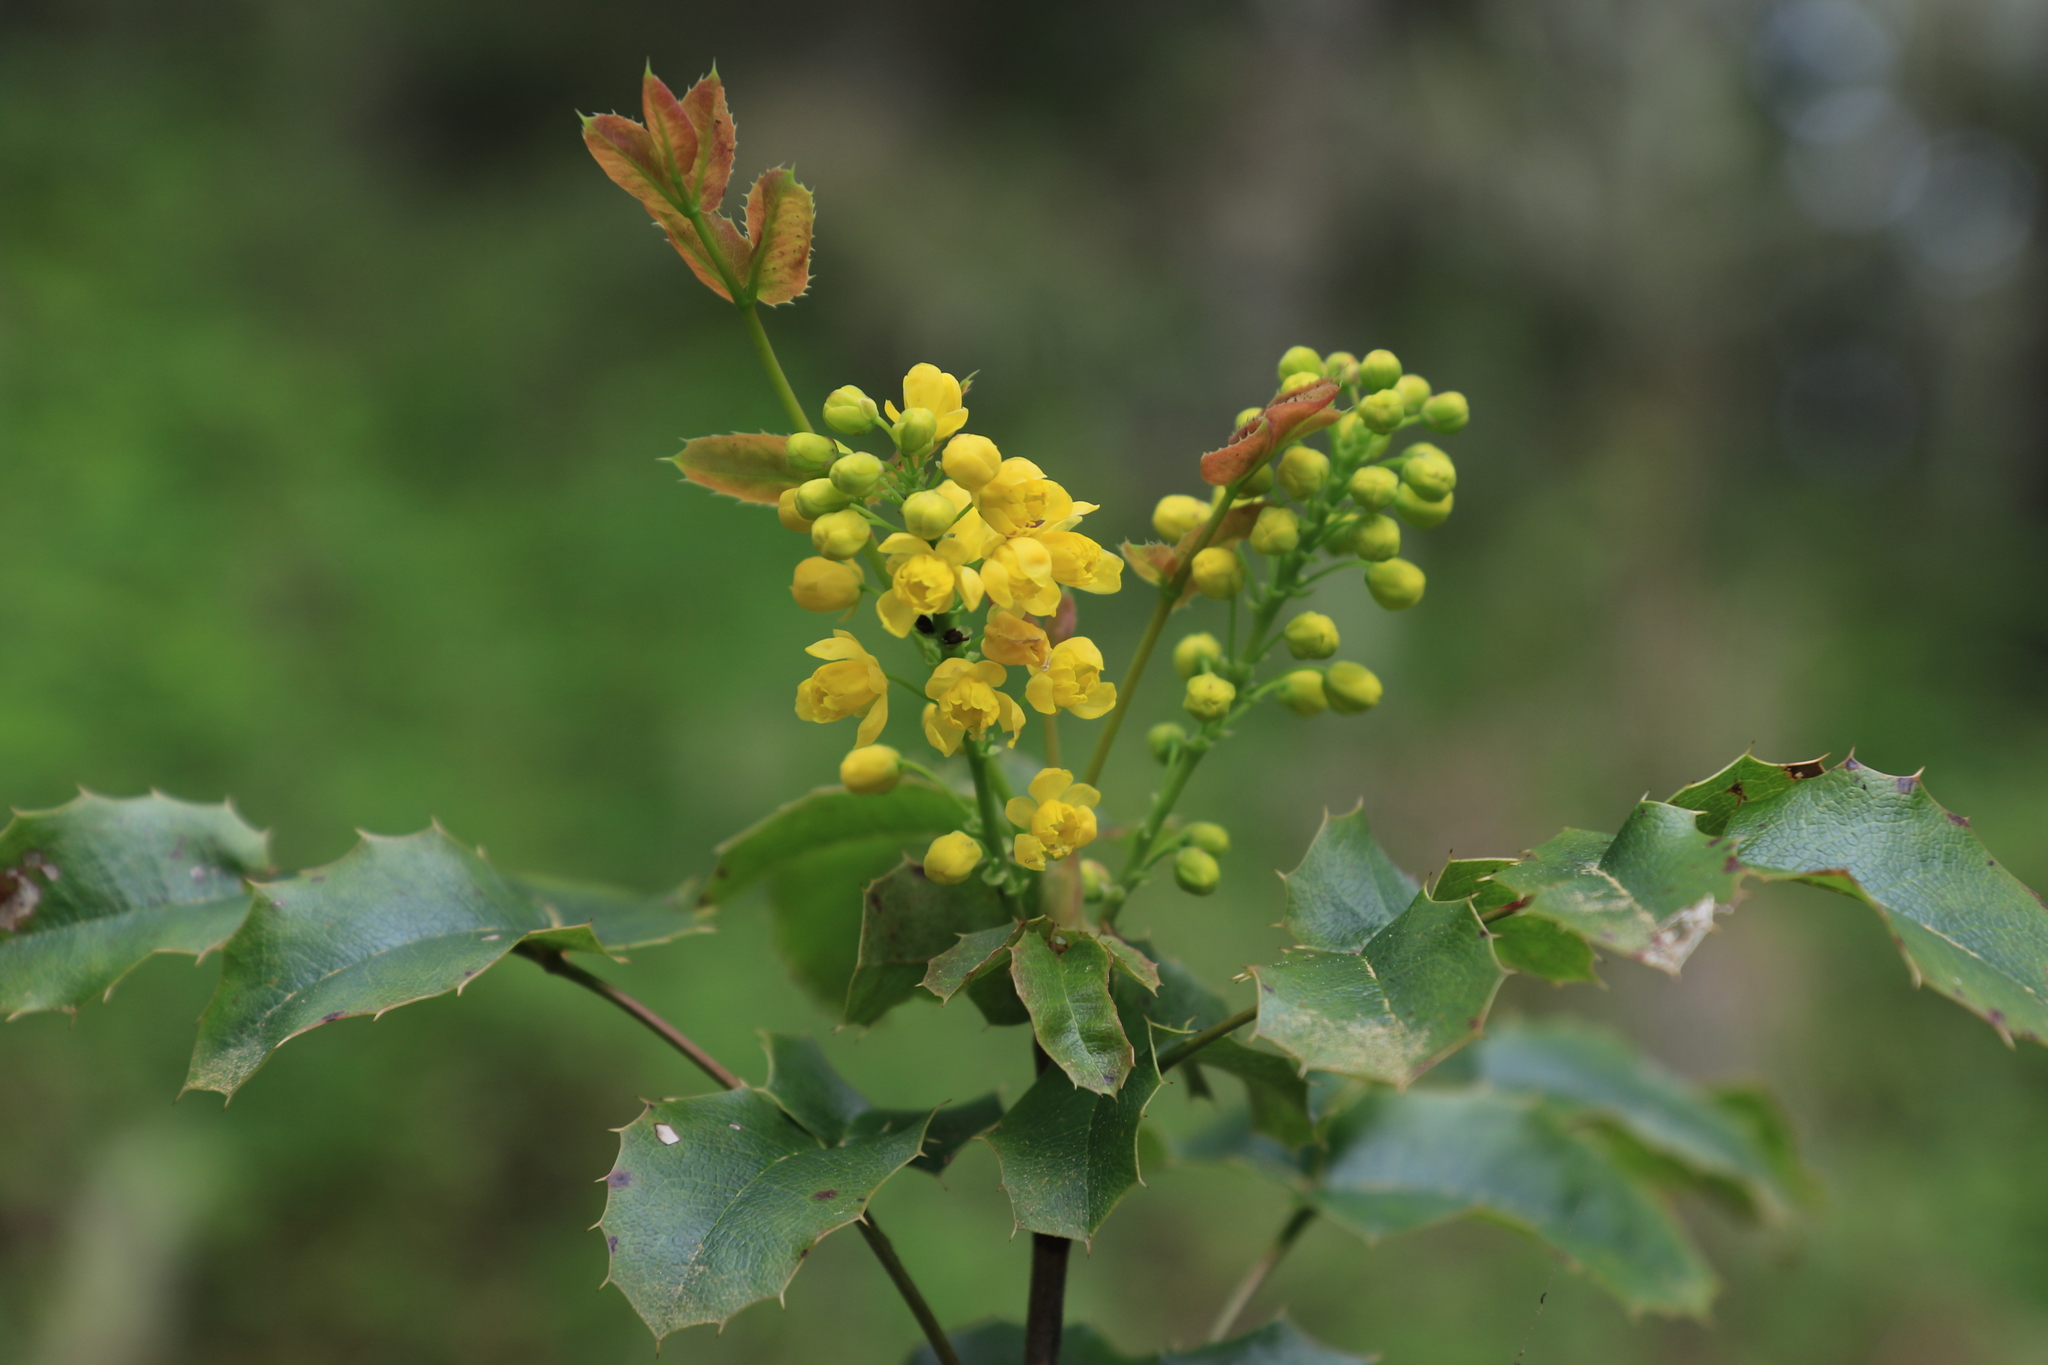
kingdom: Plantae
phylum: Tracheophyta
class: Magnoliopsida
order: Ranunculales
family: Berberidaceae
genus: Mahonia
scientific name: Mahonia aquifolium
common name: Oregon-grape
